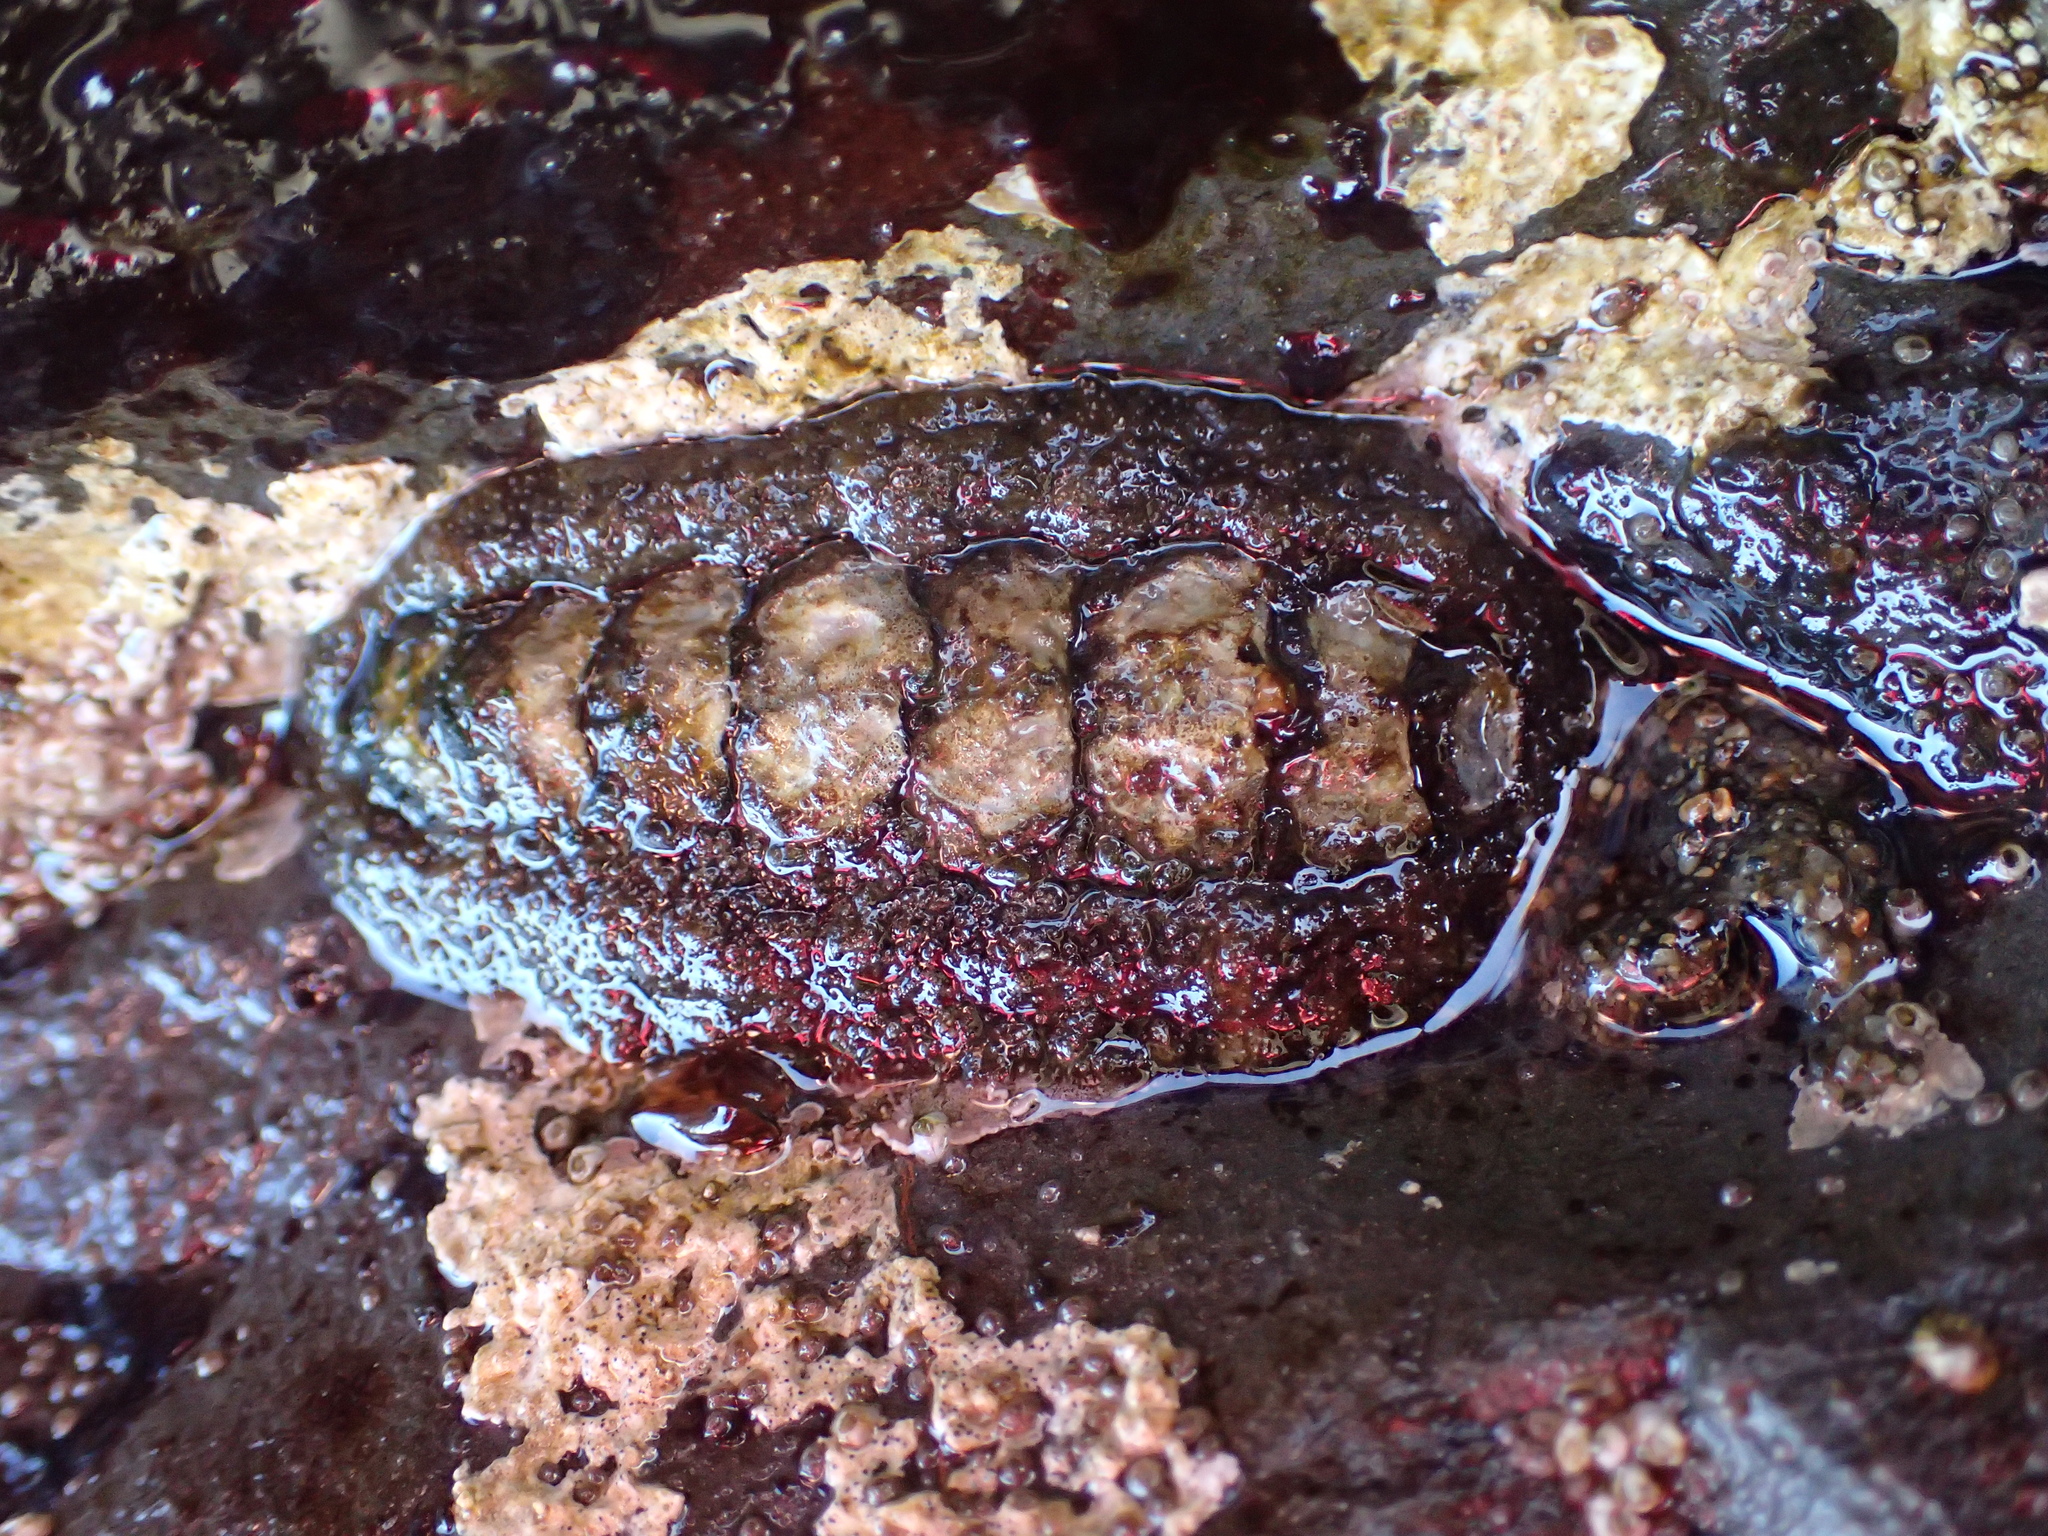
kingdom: Animalia
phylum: Mollusca
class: Polyplacophora
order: Chitonida
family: Tonicellidae
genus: Nuttallina
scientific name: Nuttallina californica
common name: California nuttall chiton
